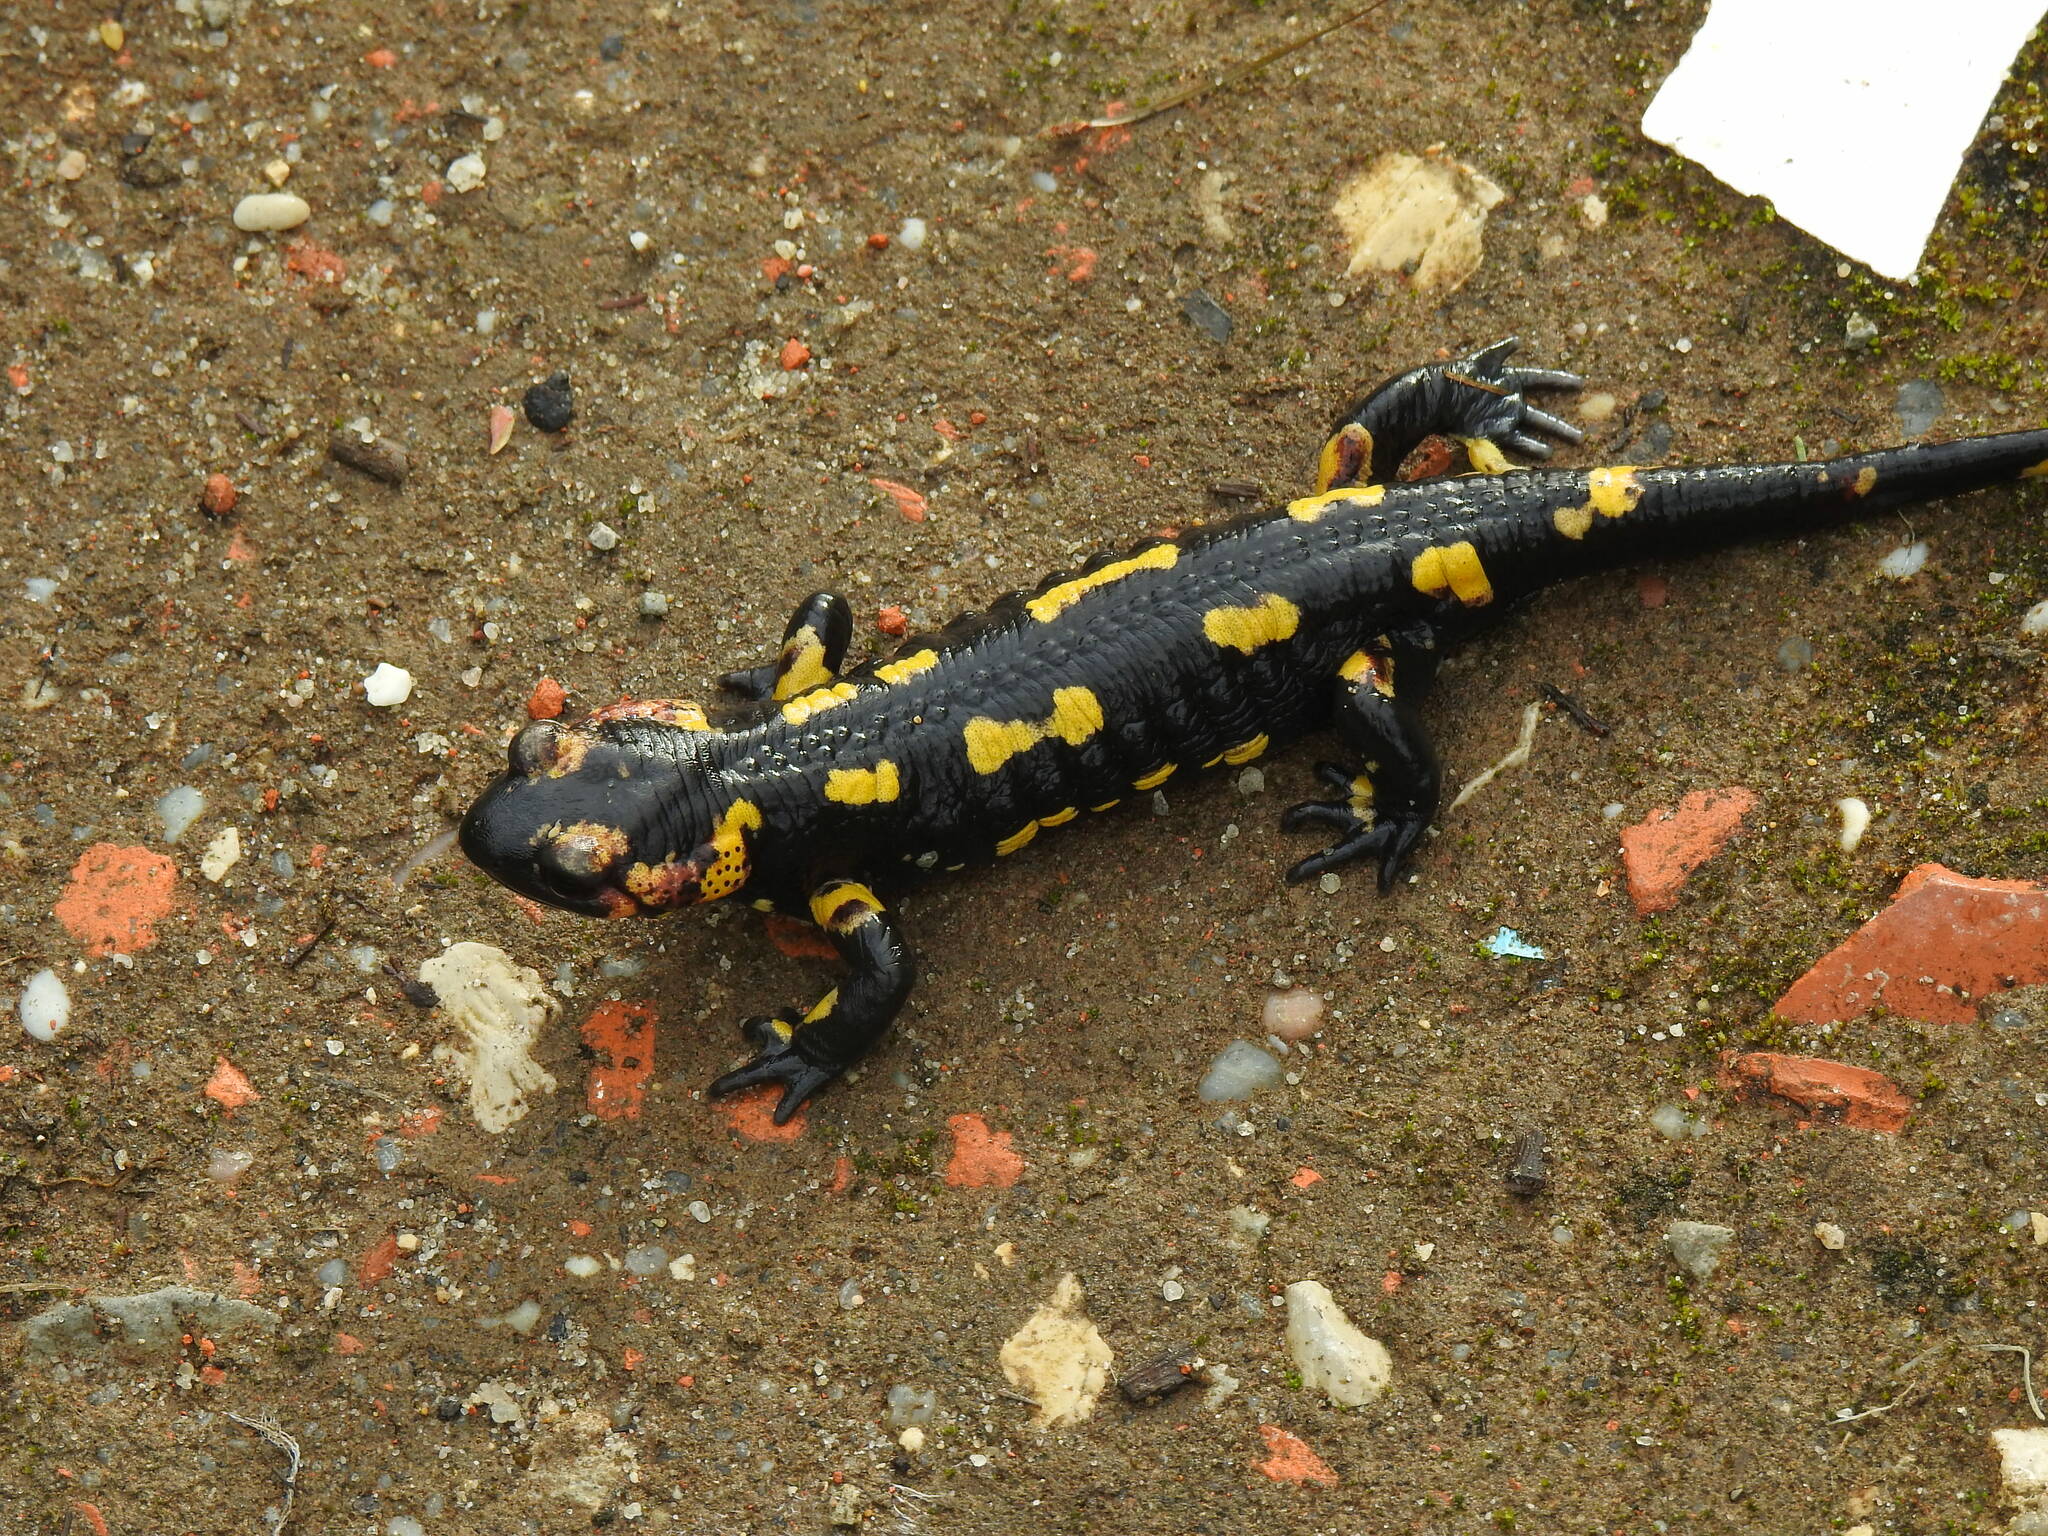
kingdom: Animalia
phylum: Chordata
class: Amphibia
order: Caudata
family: Salamandridae
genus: Salamandra
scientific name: Salamandra salamandra
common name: Fire salamander
